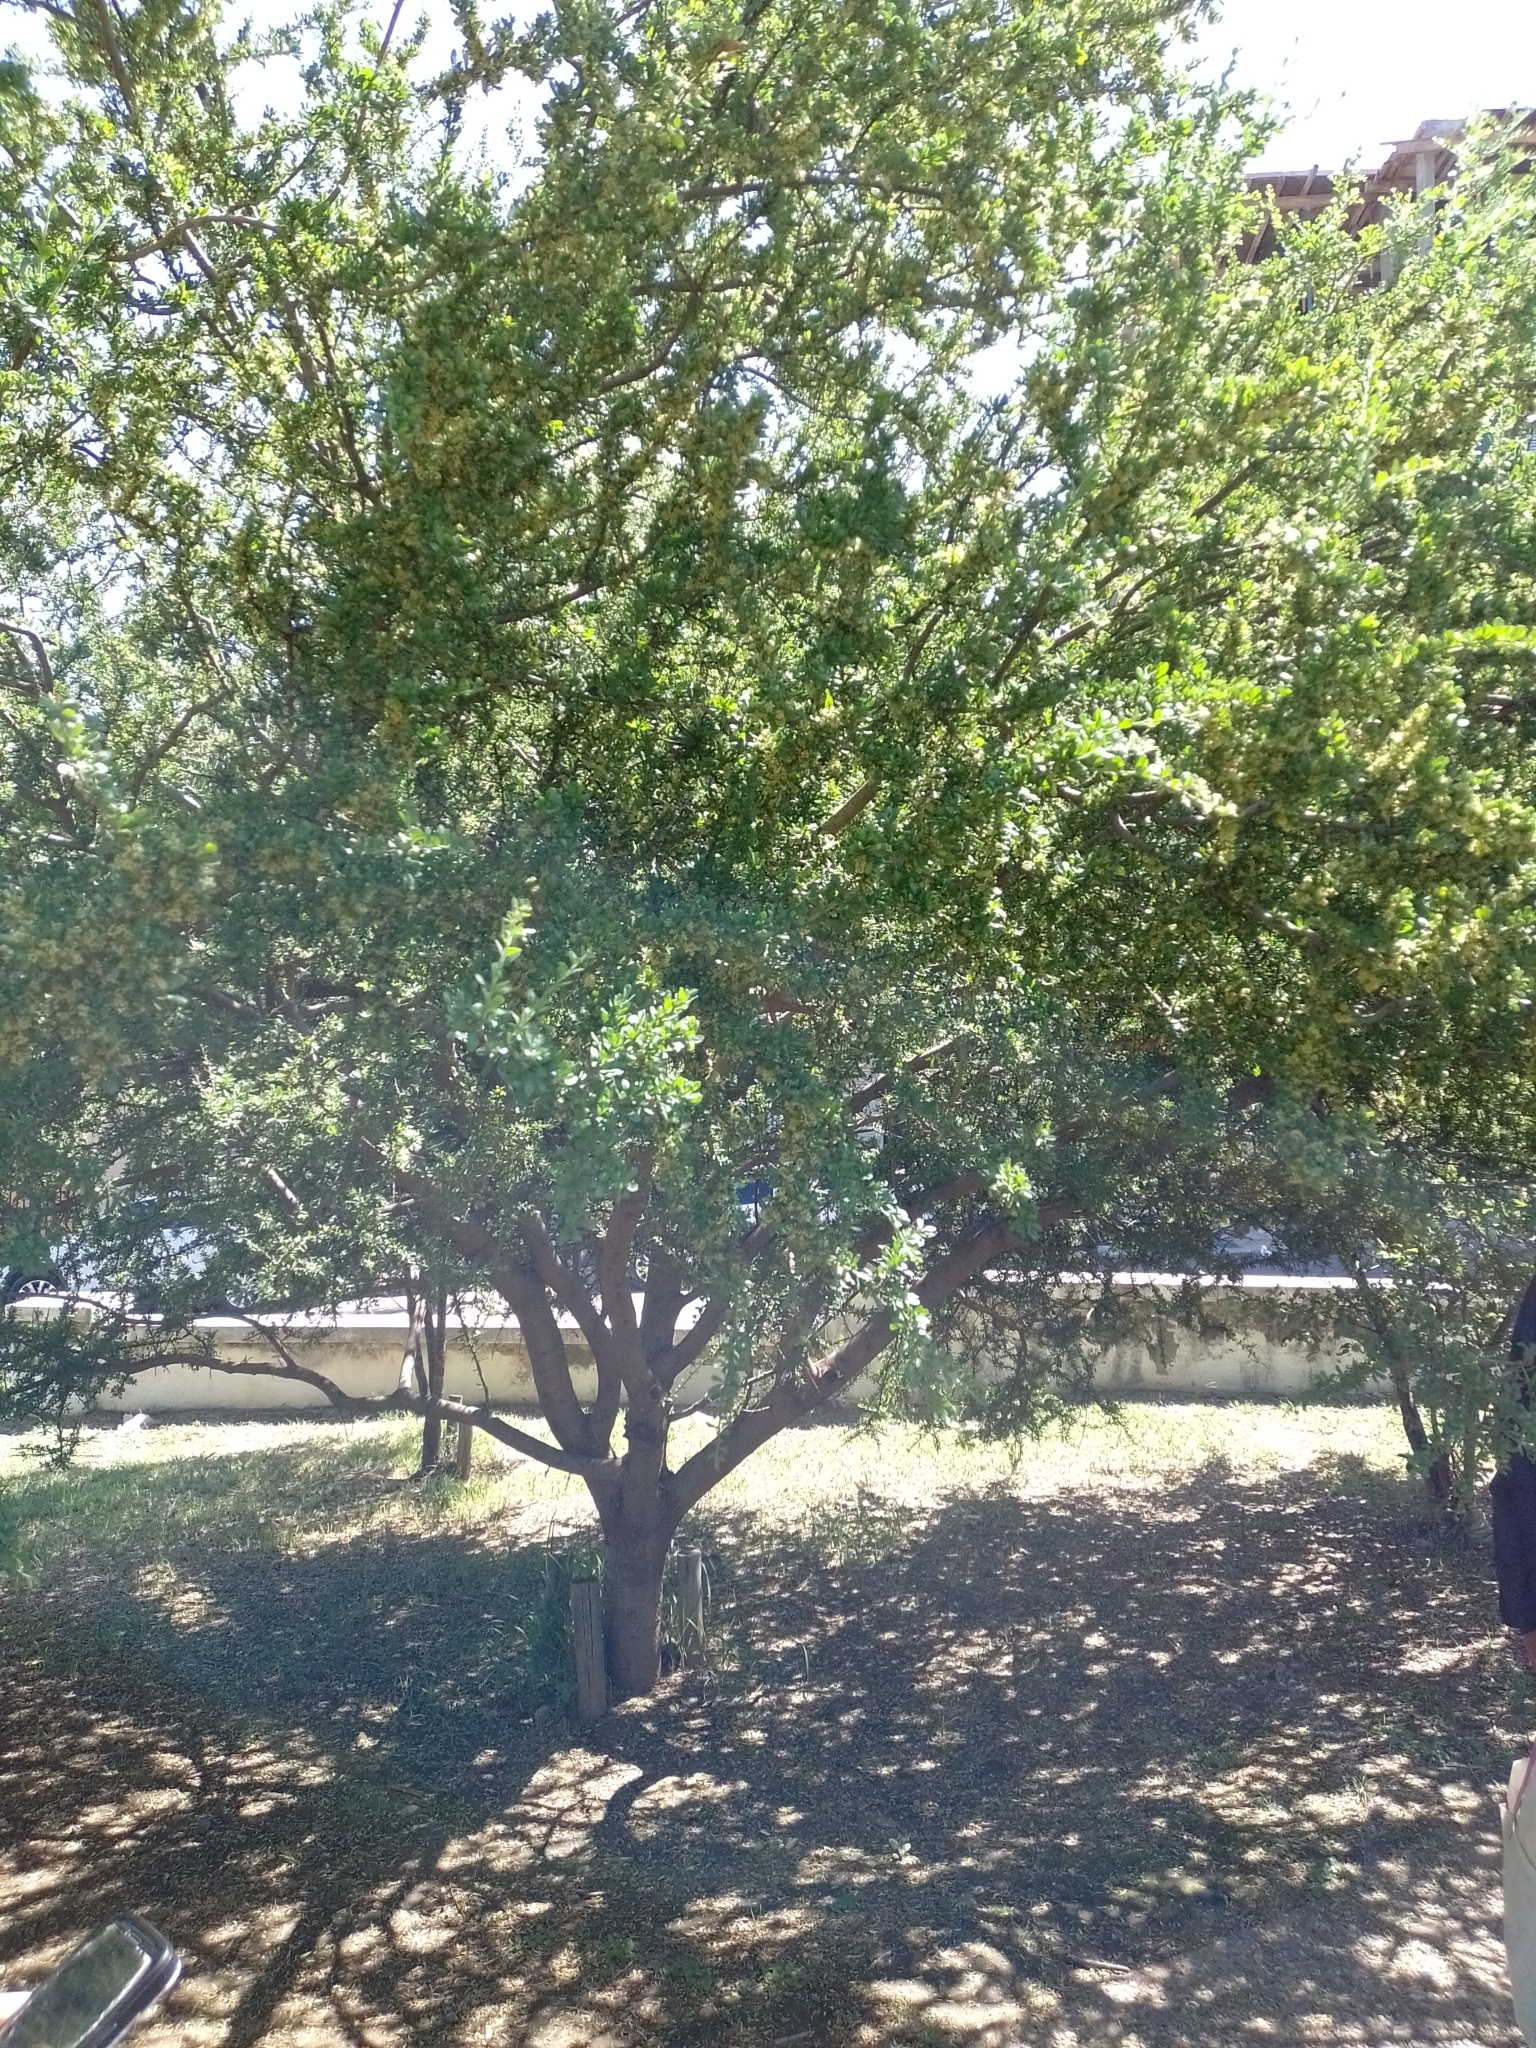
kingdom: Plantae
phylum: Tracheophyta
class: Magnoliopsida
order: Sapindales
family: Anacardiaceae
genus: Schinus
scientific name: Schinus fasciculata
